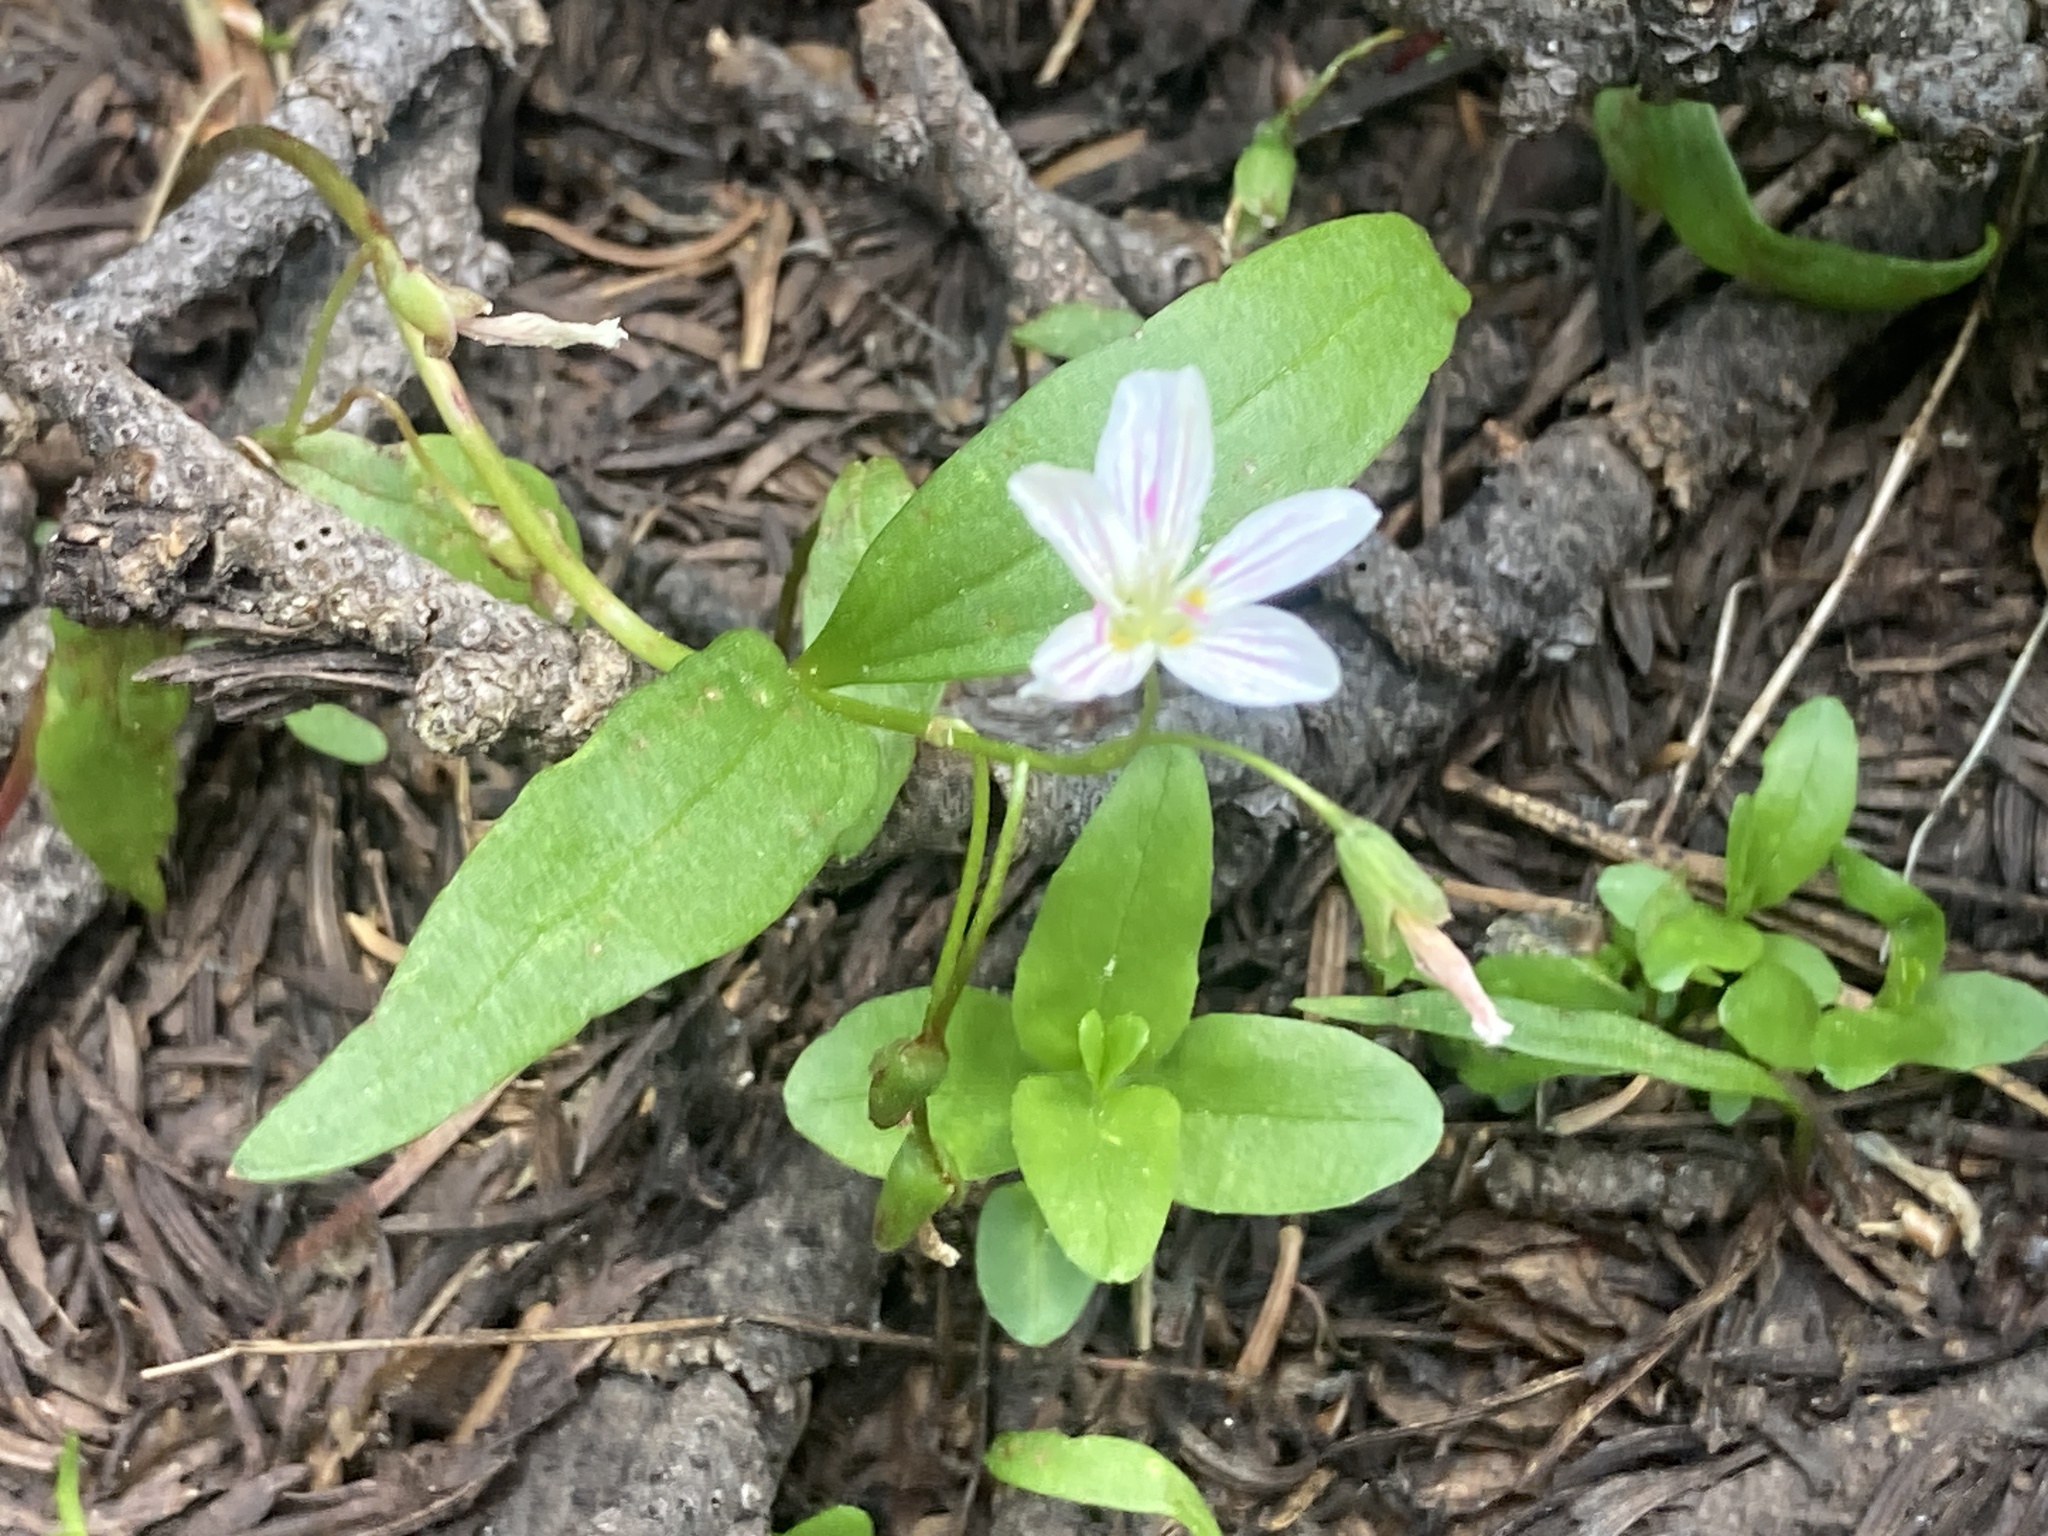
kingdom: Plantae
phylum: Tracheophyta
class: Magnoliopsida
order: Caryophyllales
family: Montiaceae
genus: Claytonia
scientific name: Claytonia lanceolata
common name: Western spring-beauty
